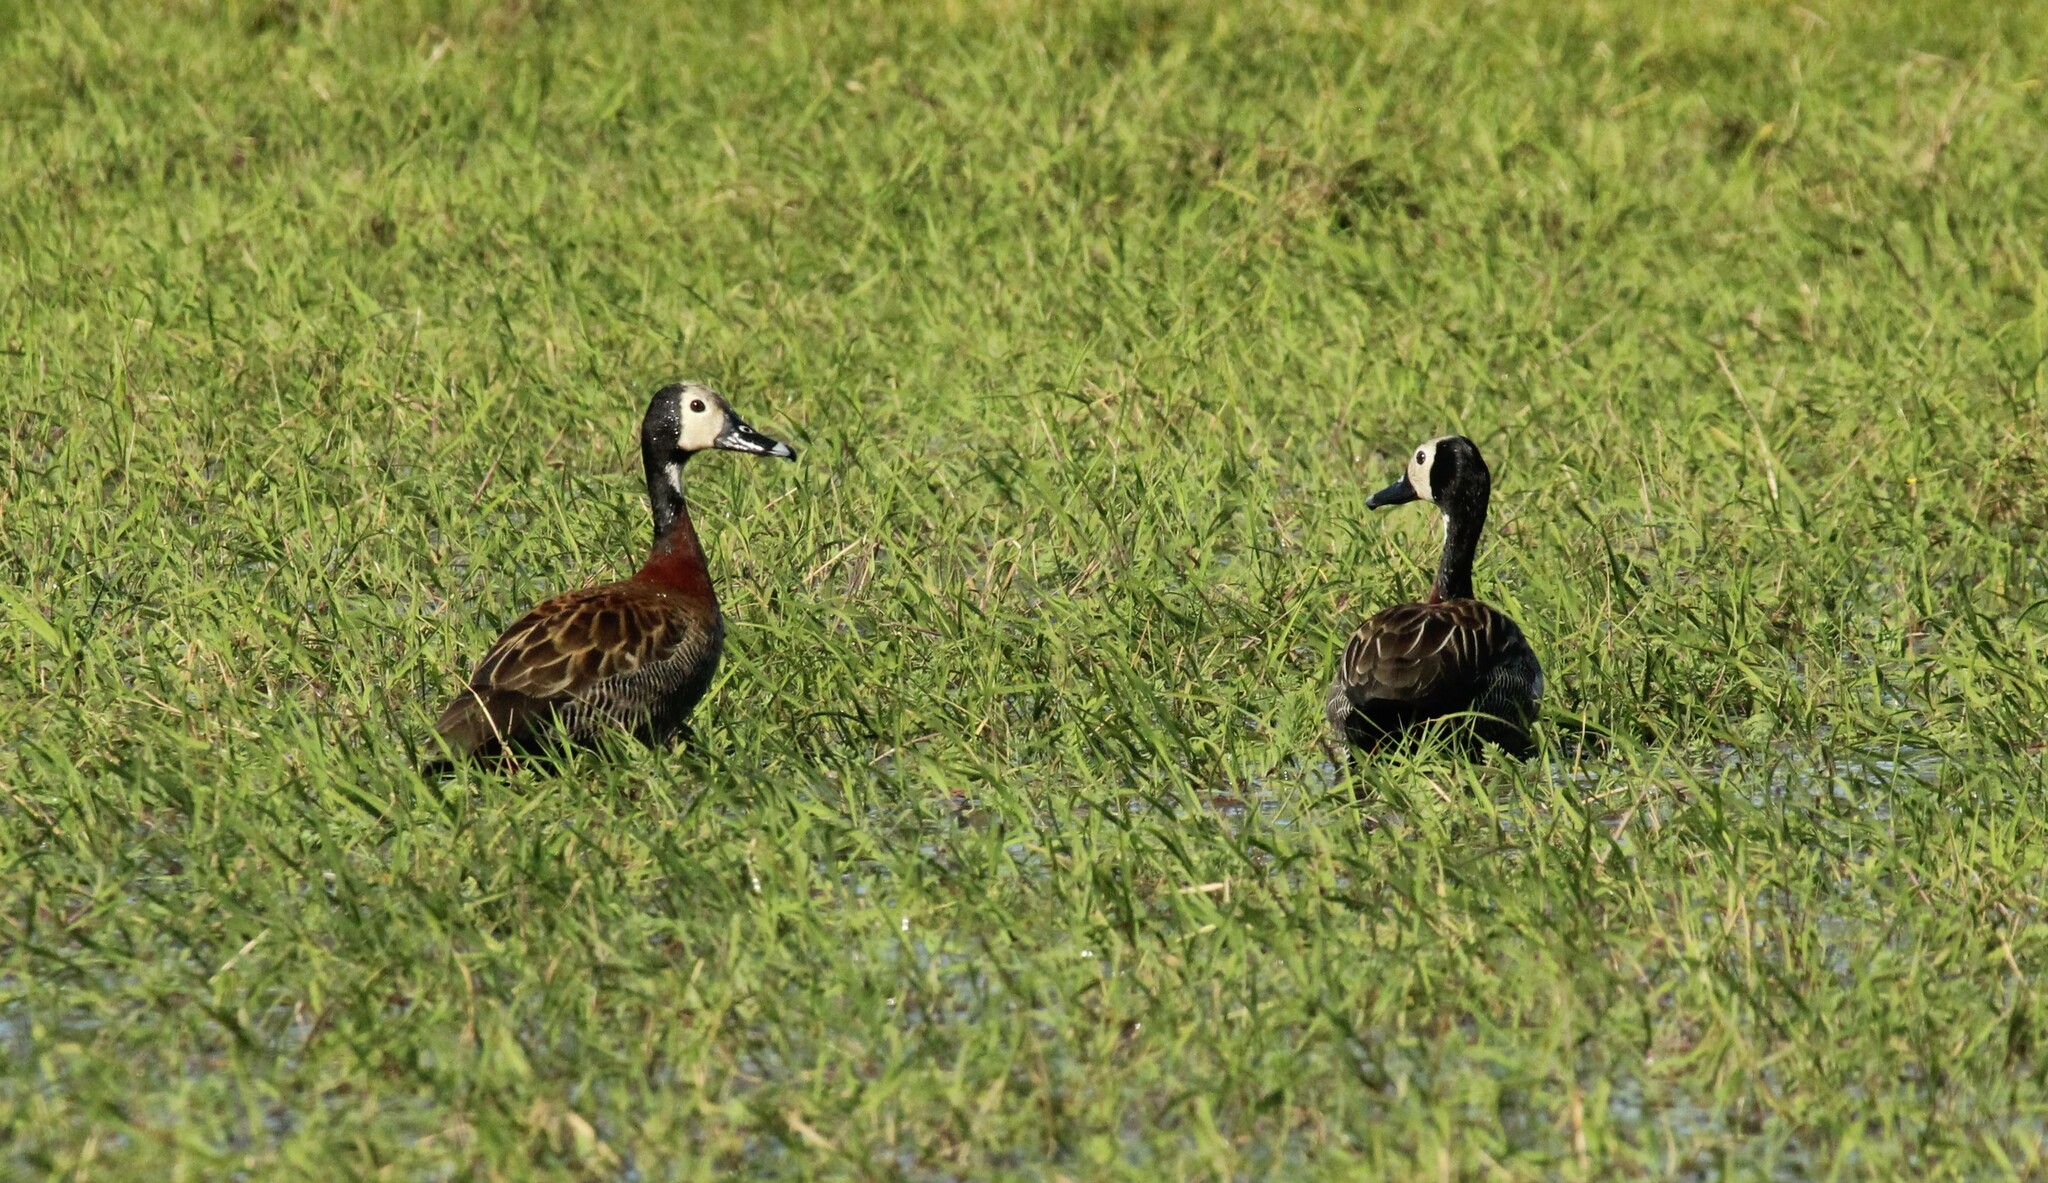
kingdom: Animalia
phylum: Chordata
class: Aves
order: Anseriformes
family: Anatidae
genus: Dendrocygna
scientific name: Dendrocygna viduata
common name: White-faced whistling duck
